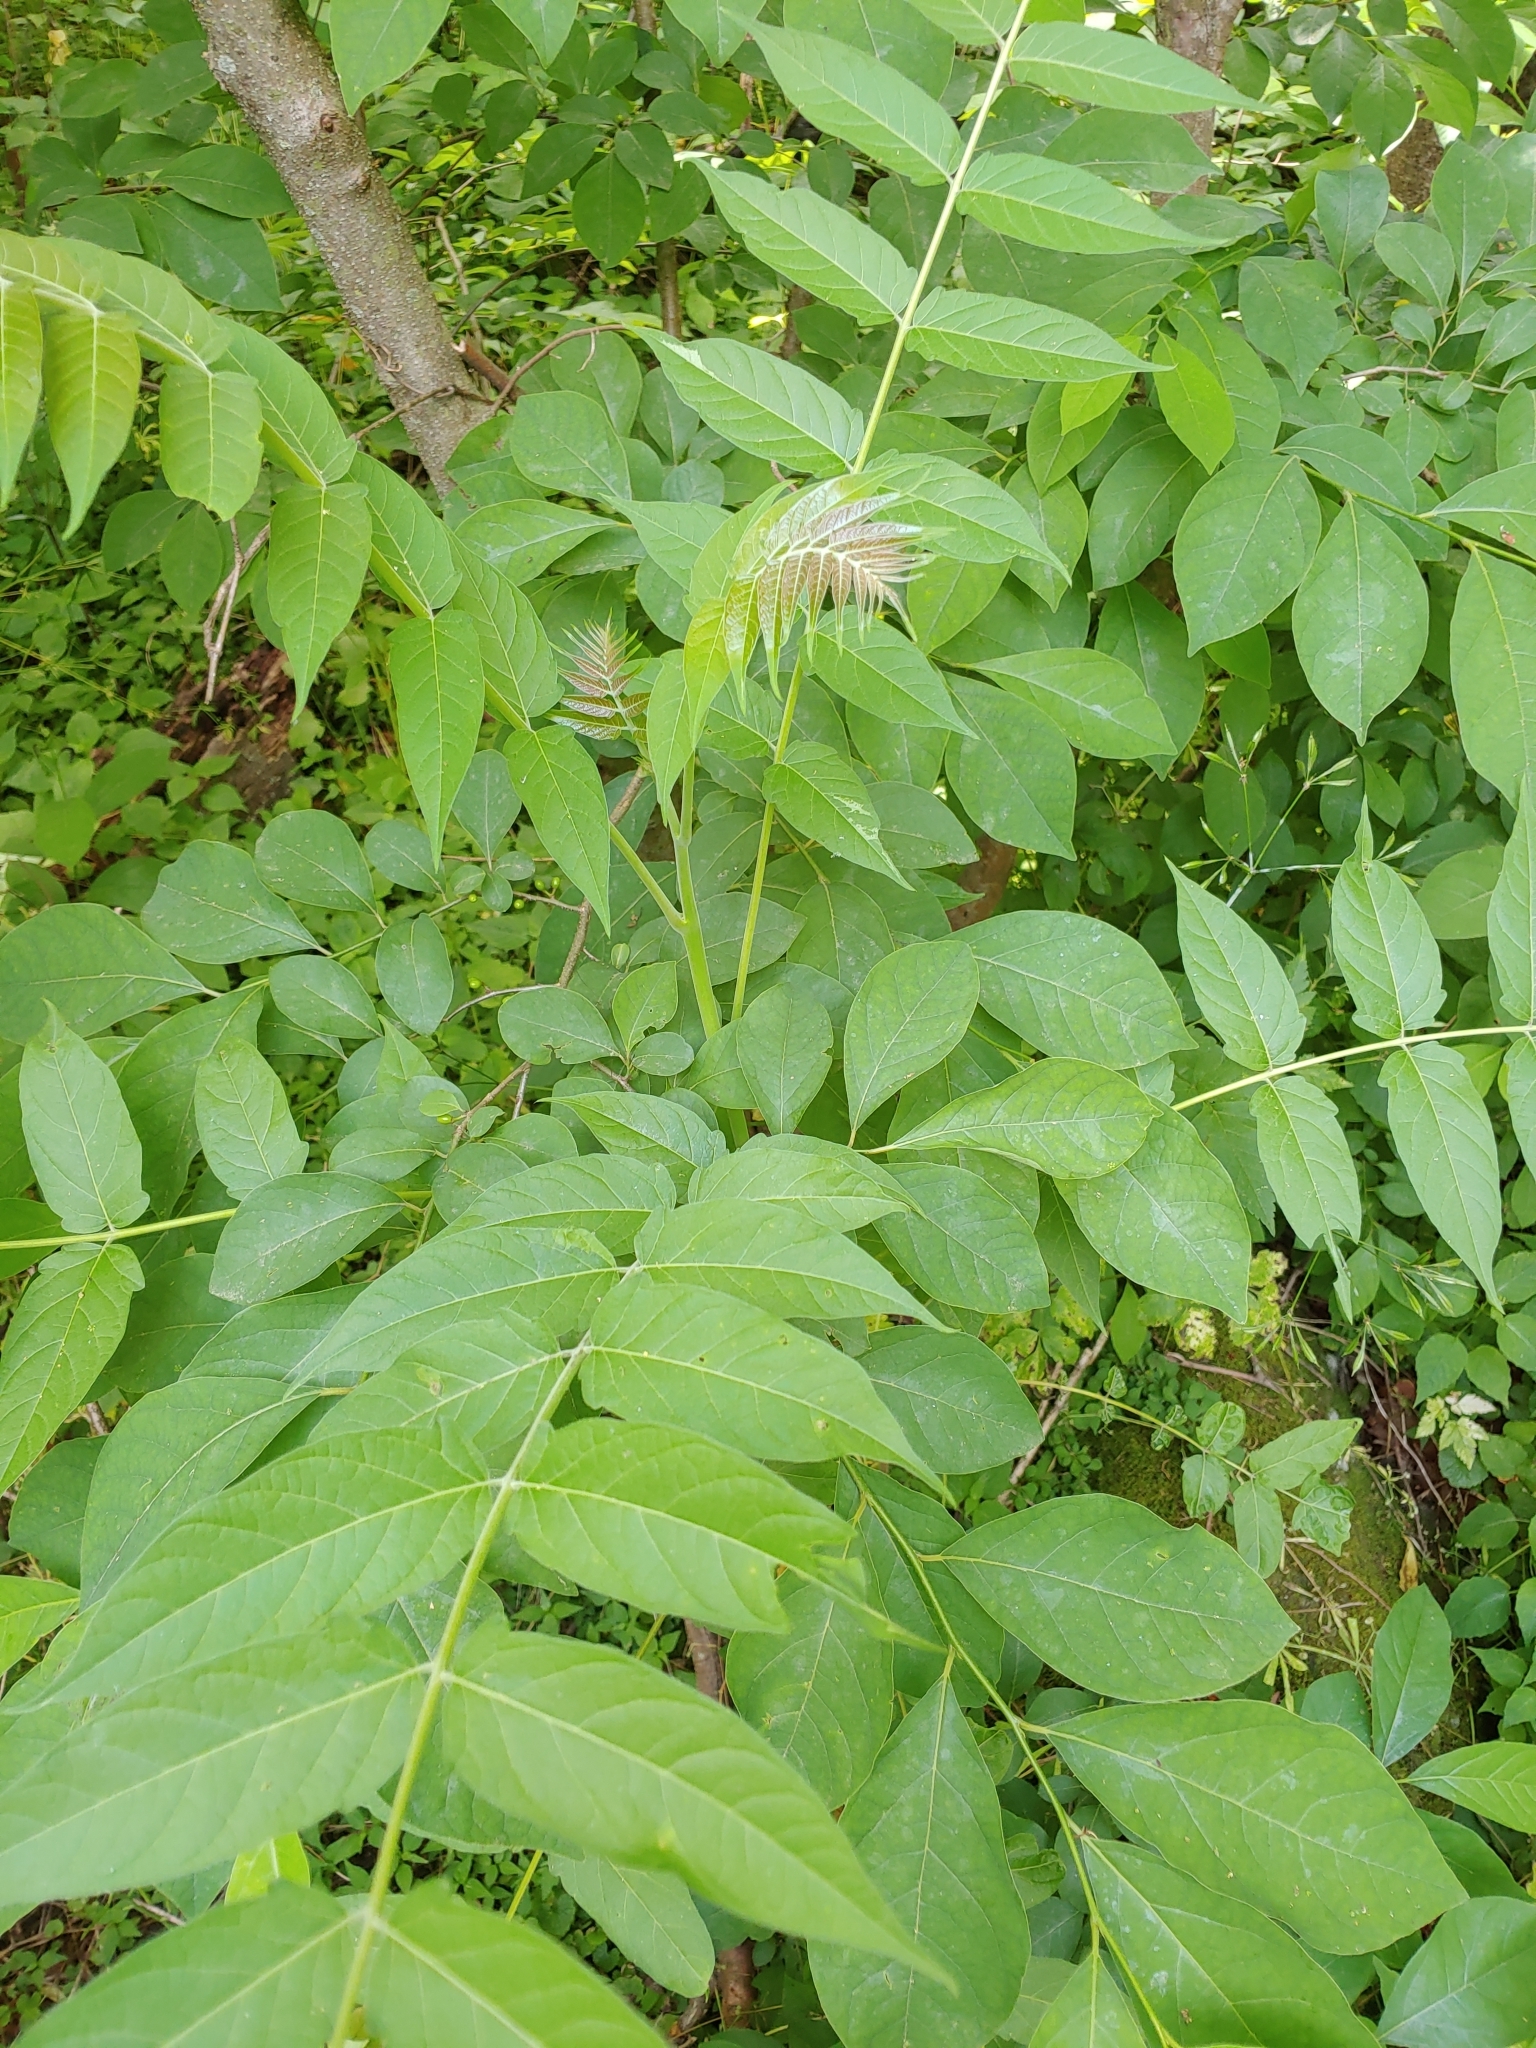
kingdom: Plantae
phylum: Tracheophyta
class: Magnoliopsida
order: Sapindales
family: Simaroubaceae
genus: Ailanthus
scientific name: Ailanthus altissima
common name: Tree-of-heaven
